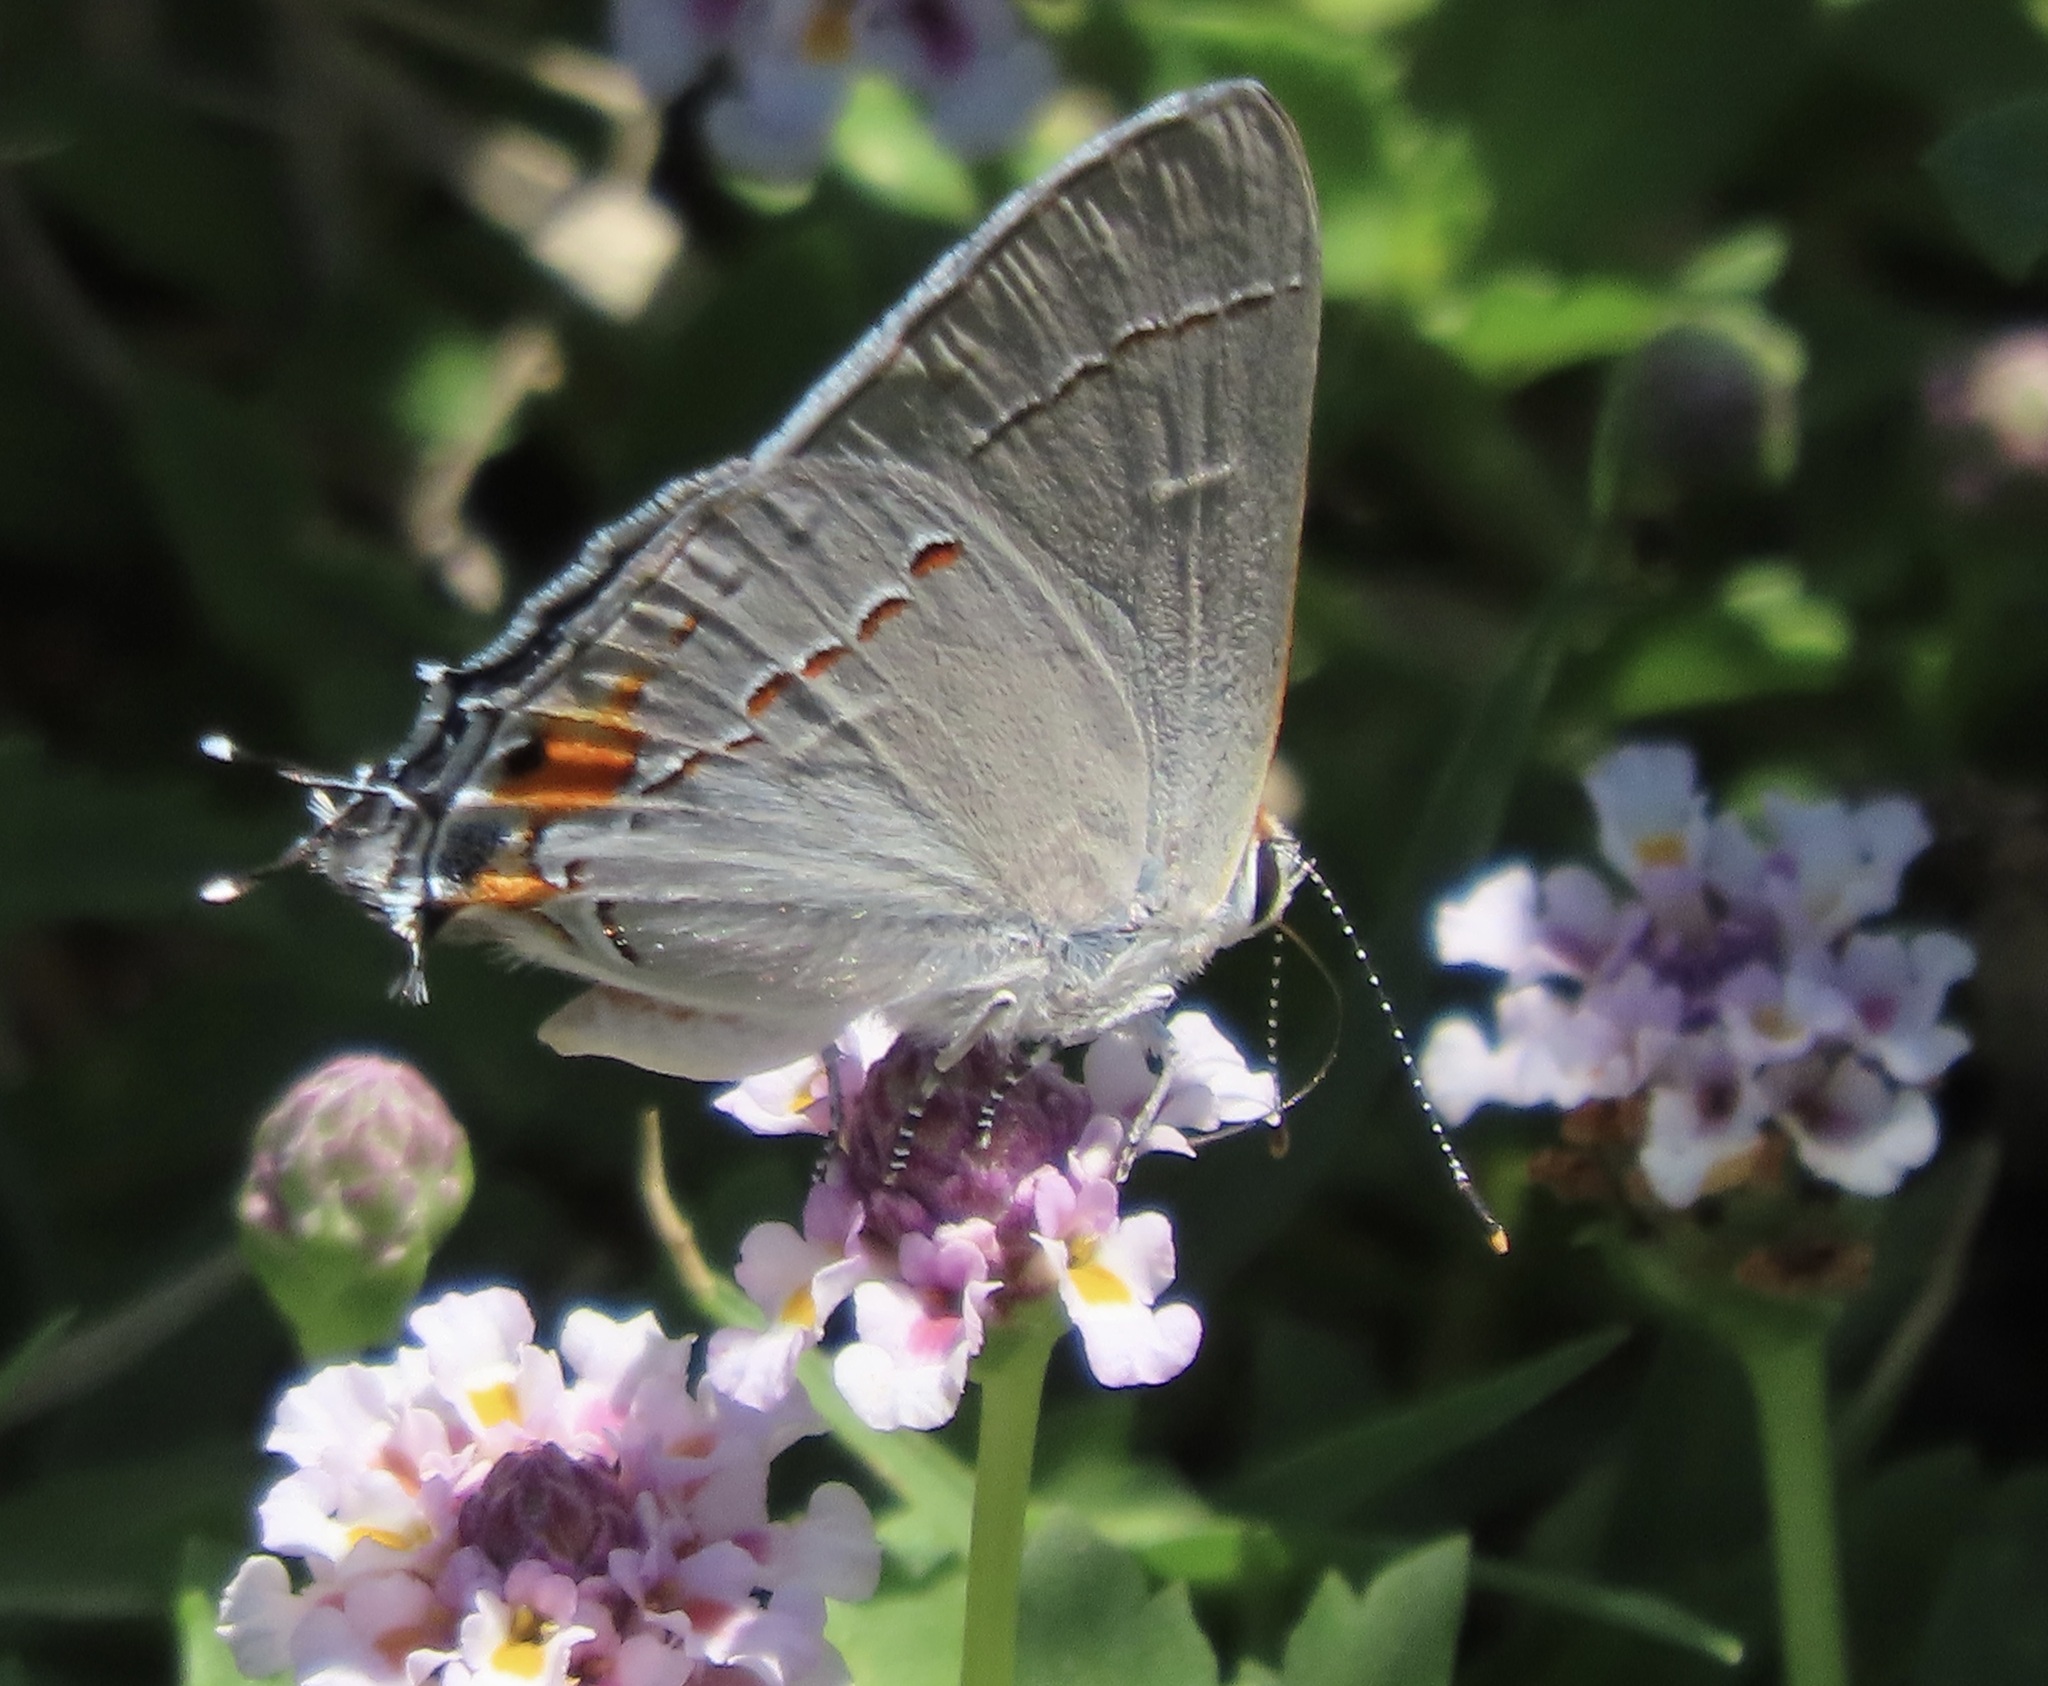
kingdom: Animalia
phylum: Arthropoda
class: Insecta
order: Lepidoptera
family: Lycaenidae
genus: Strymon
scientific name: Strymon melinus
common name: Gray hairstreak
